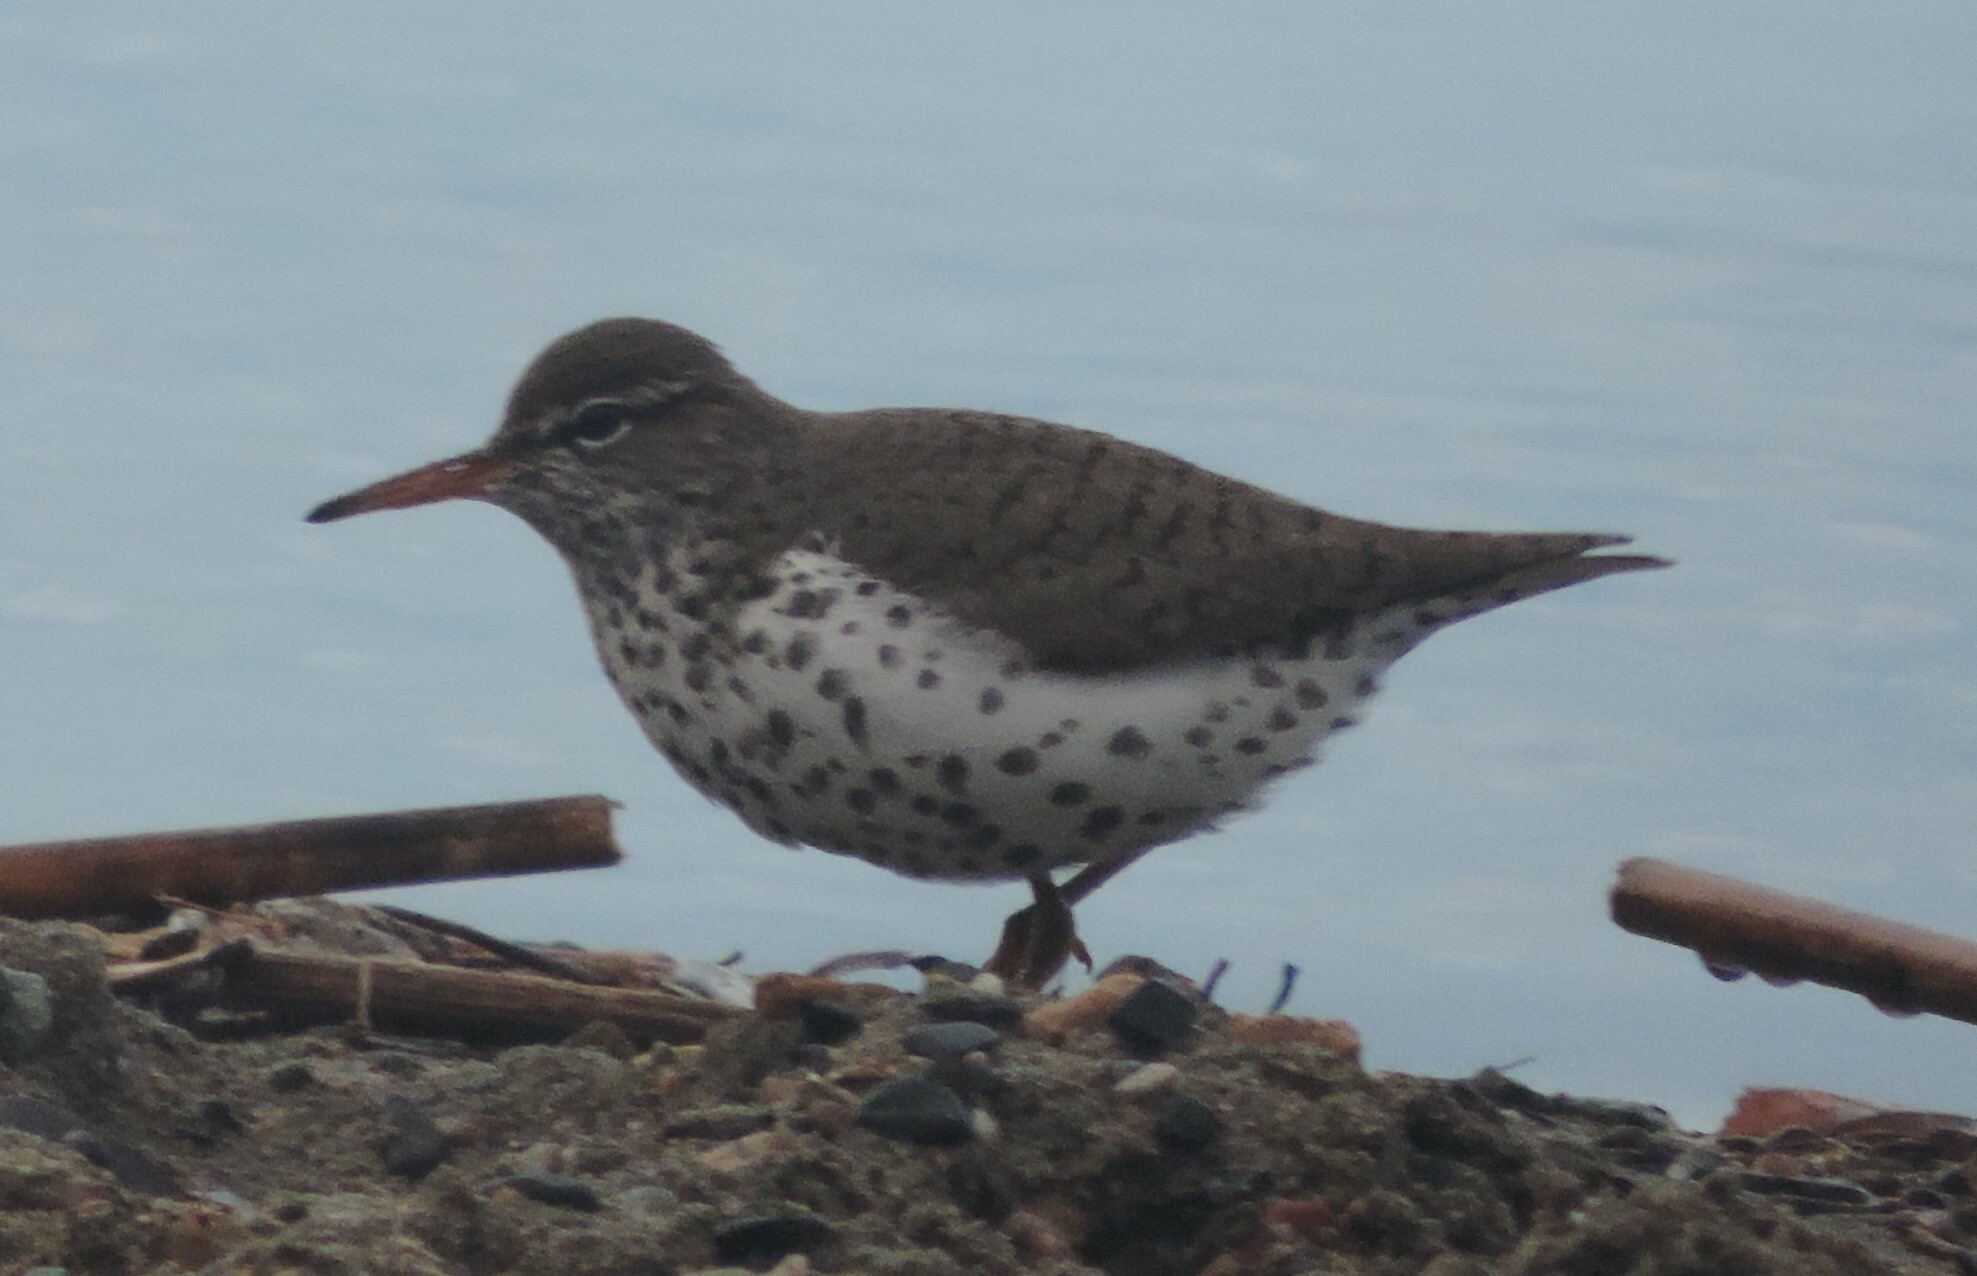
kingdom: Animalia
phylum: Chordata
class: Aves
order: Charadriiformes
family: Scolopacidae
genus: Actitis
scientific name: Actitis macularius
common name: Spotted sandpiper
